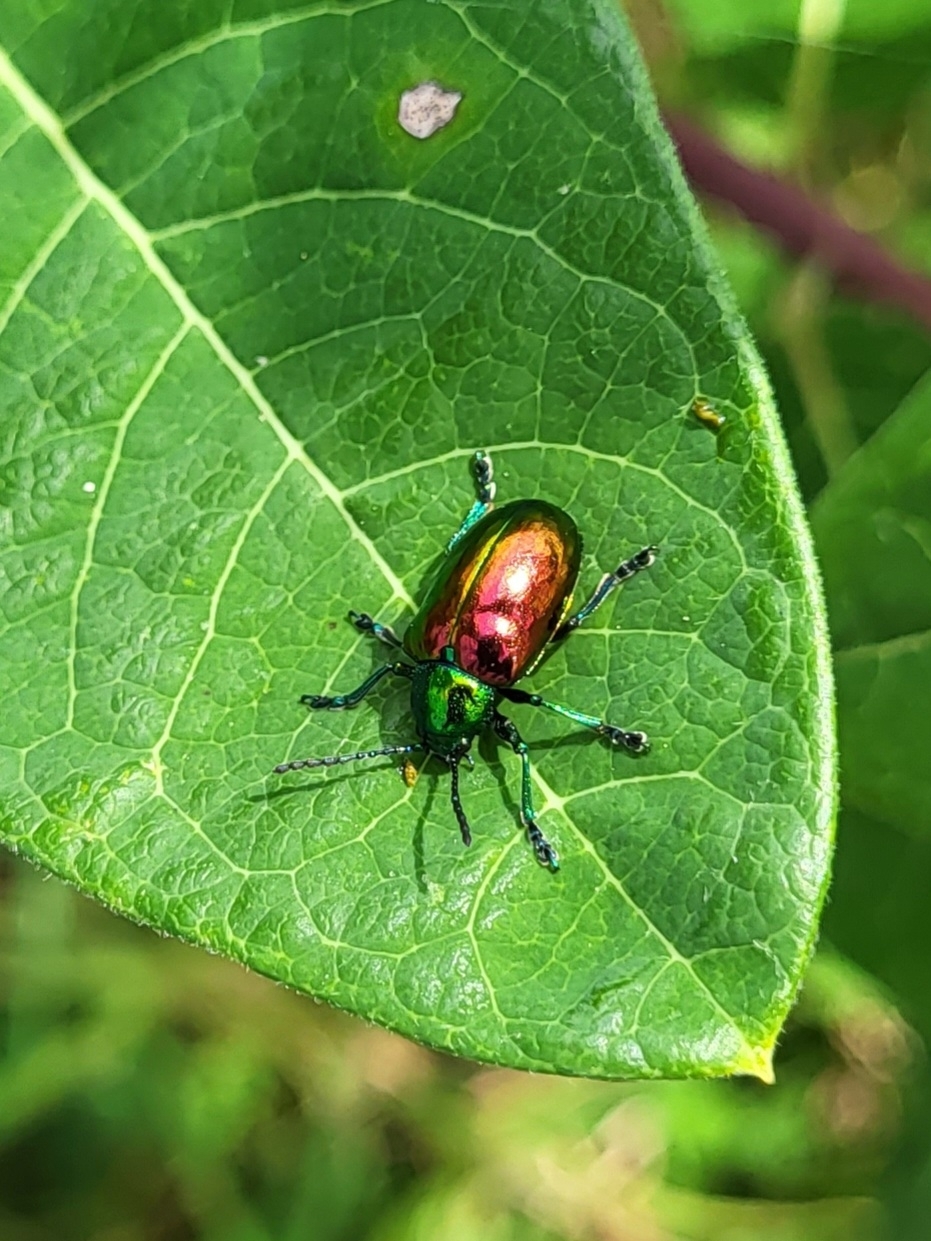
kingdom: Animalia
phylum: Arthropoda
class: Insecta
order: Coleoptera
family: Chrysomelidae
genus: Chrysochus
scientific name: Chrysochus auratus
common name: Dogbane leaf beetle
